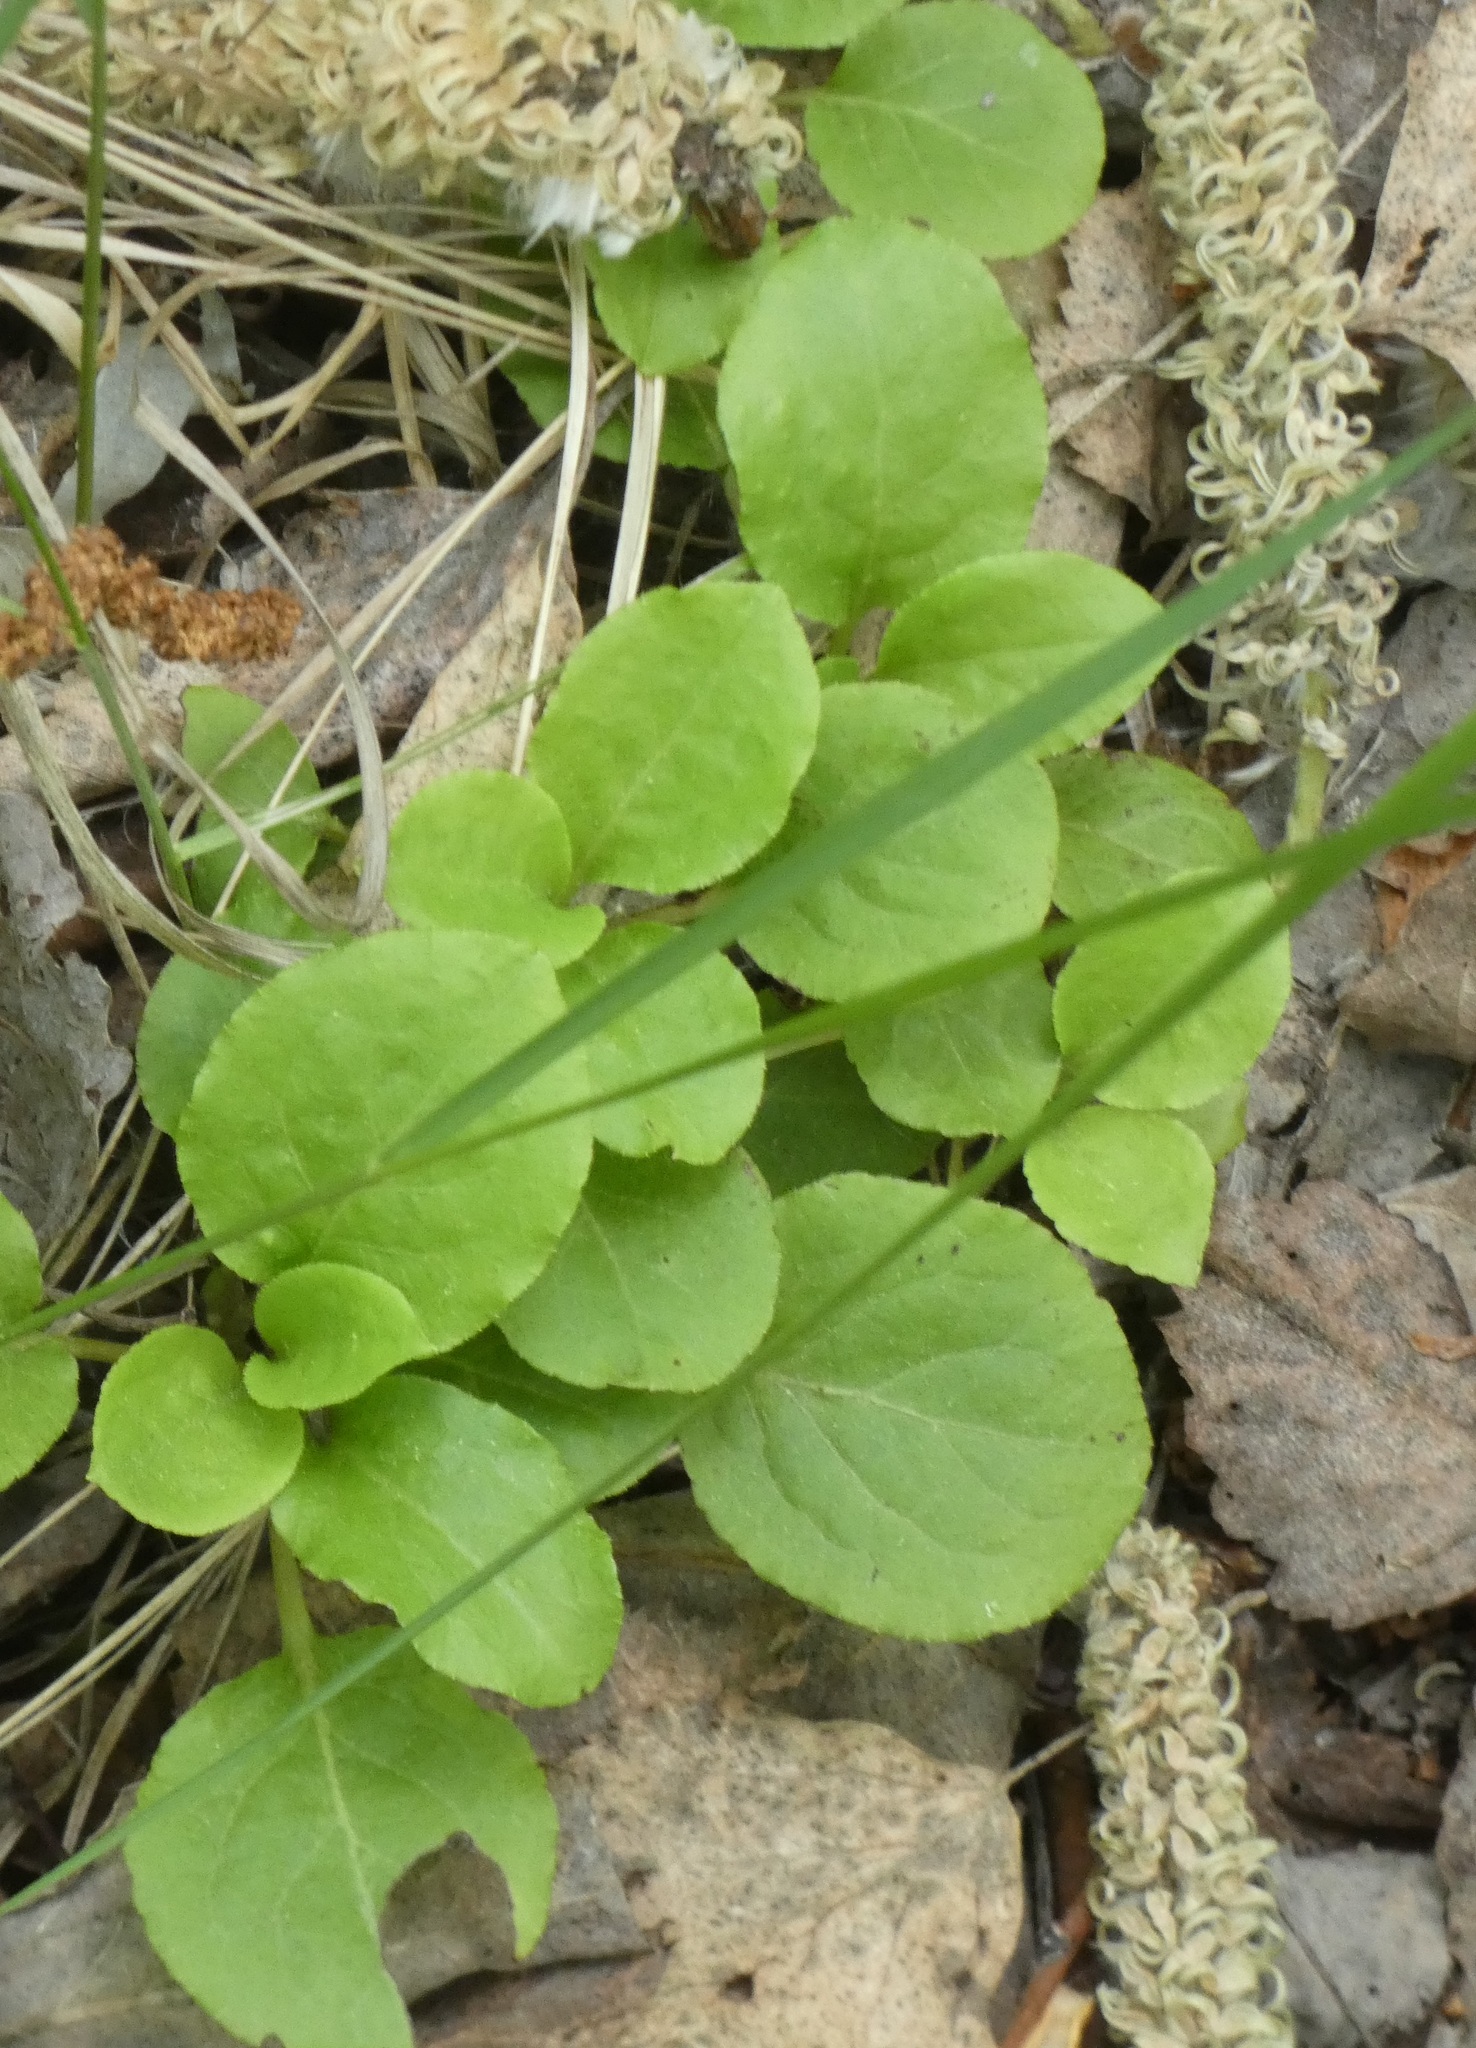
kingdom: Plantae
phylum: Tracheophyta
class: Magnoliopsida
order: Ericales
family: Ericaceae
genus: Pyrola
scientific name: Pyrola minor
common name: Common wintergreen
